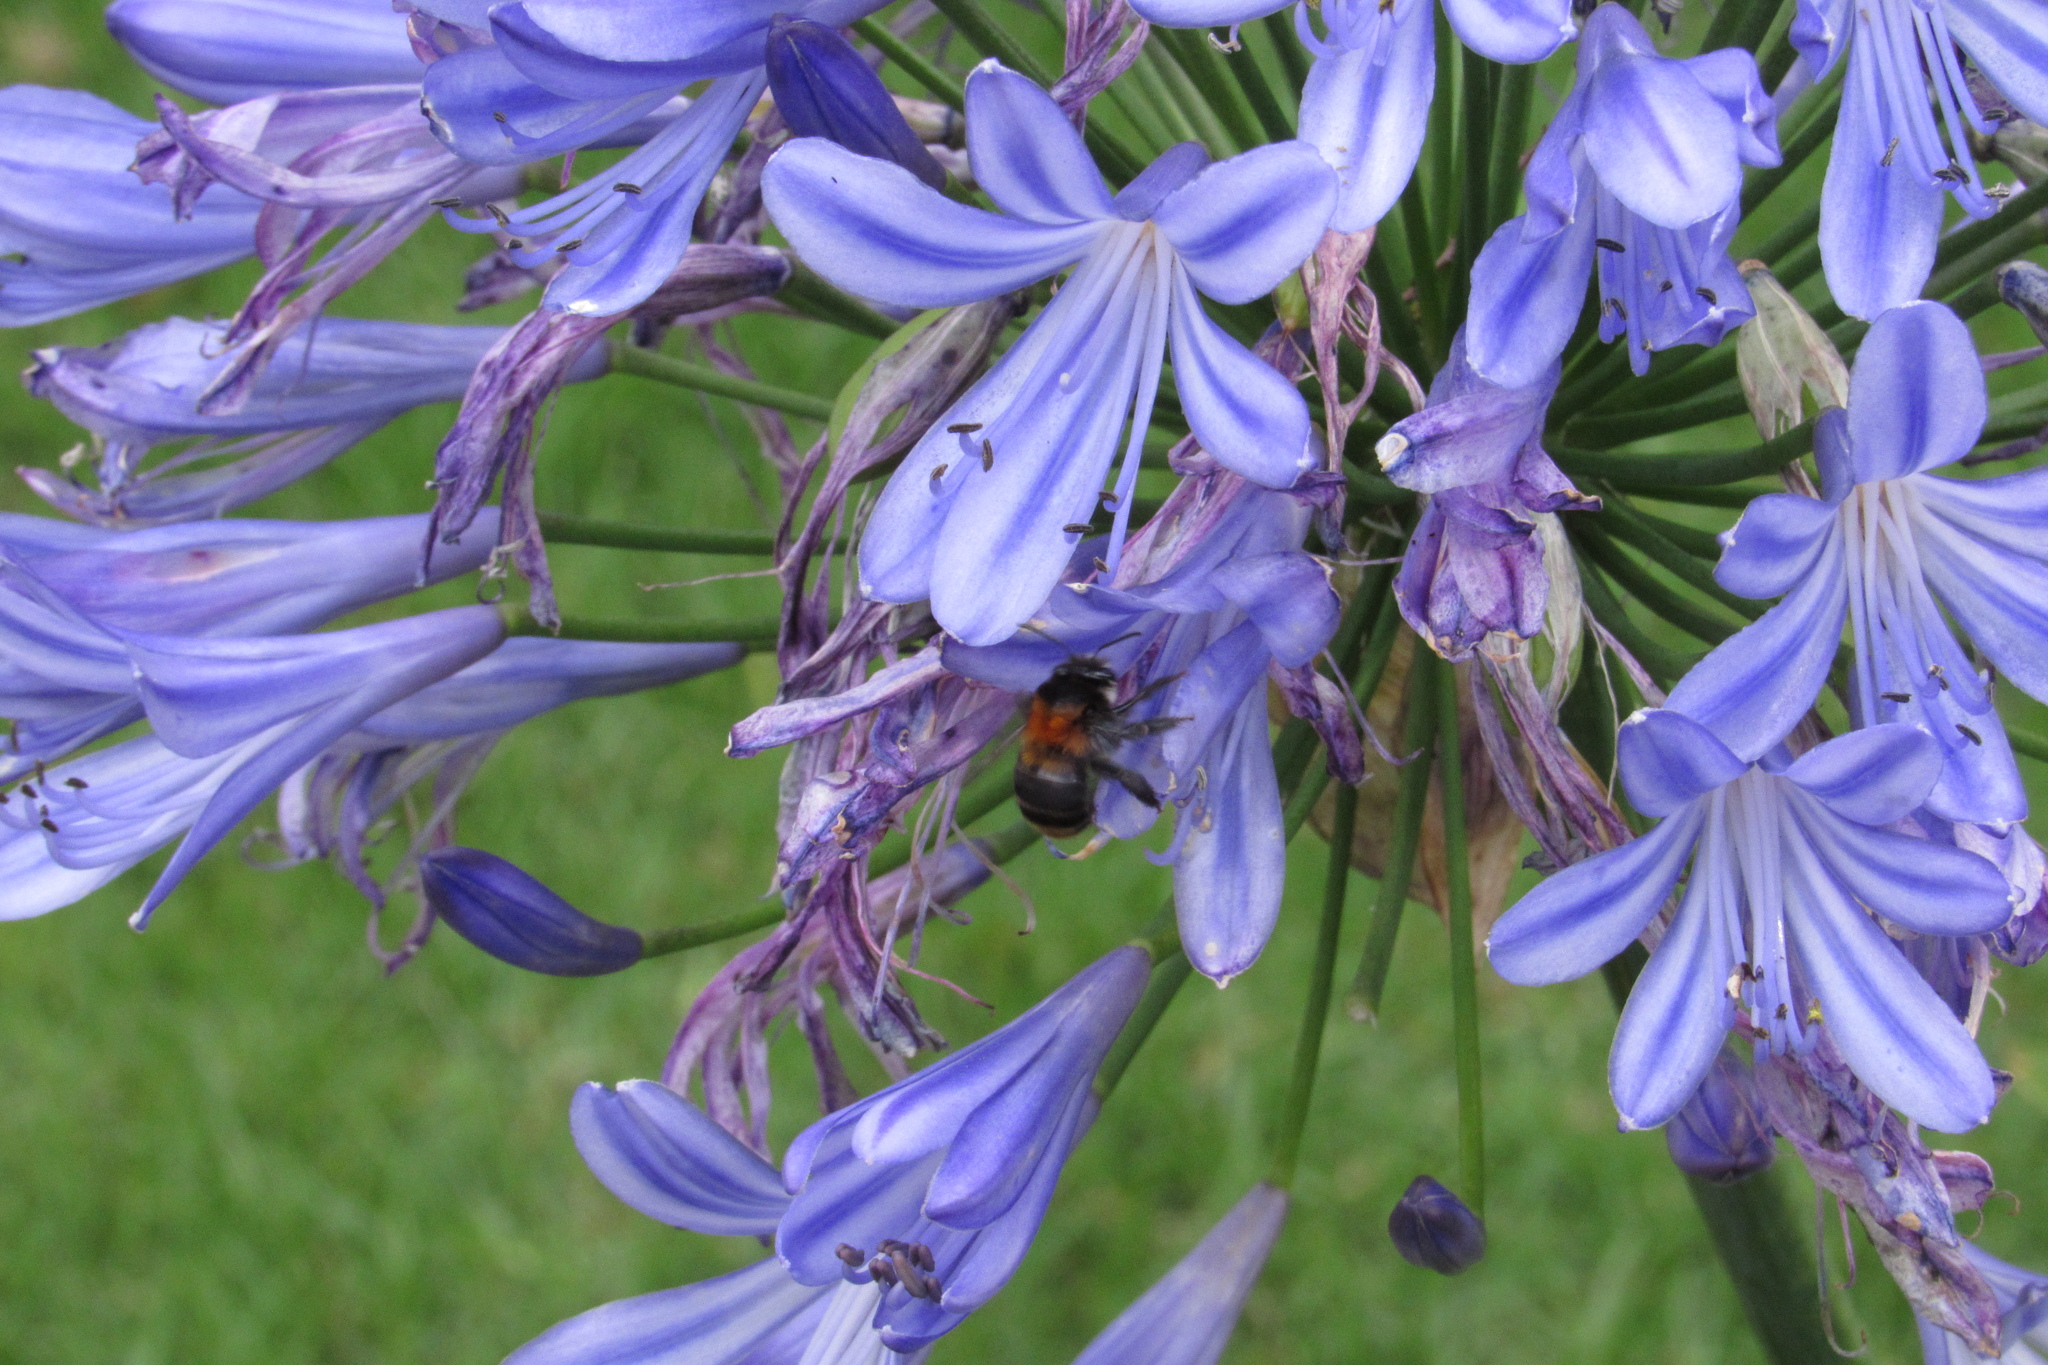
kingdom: Animalia
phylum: Arthropoda
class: Insecta
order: Hymenoptera
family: Apidae
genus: Thygater
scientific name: Thygater aethiops
